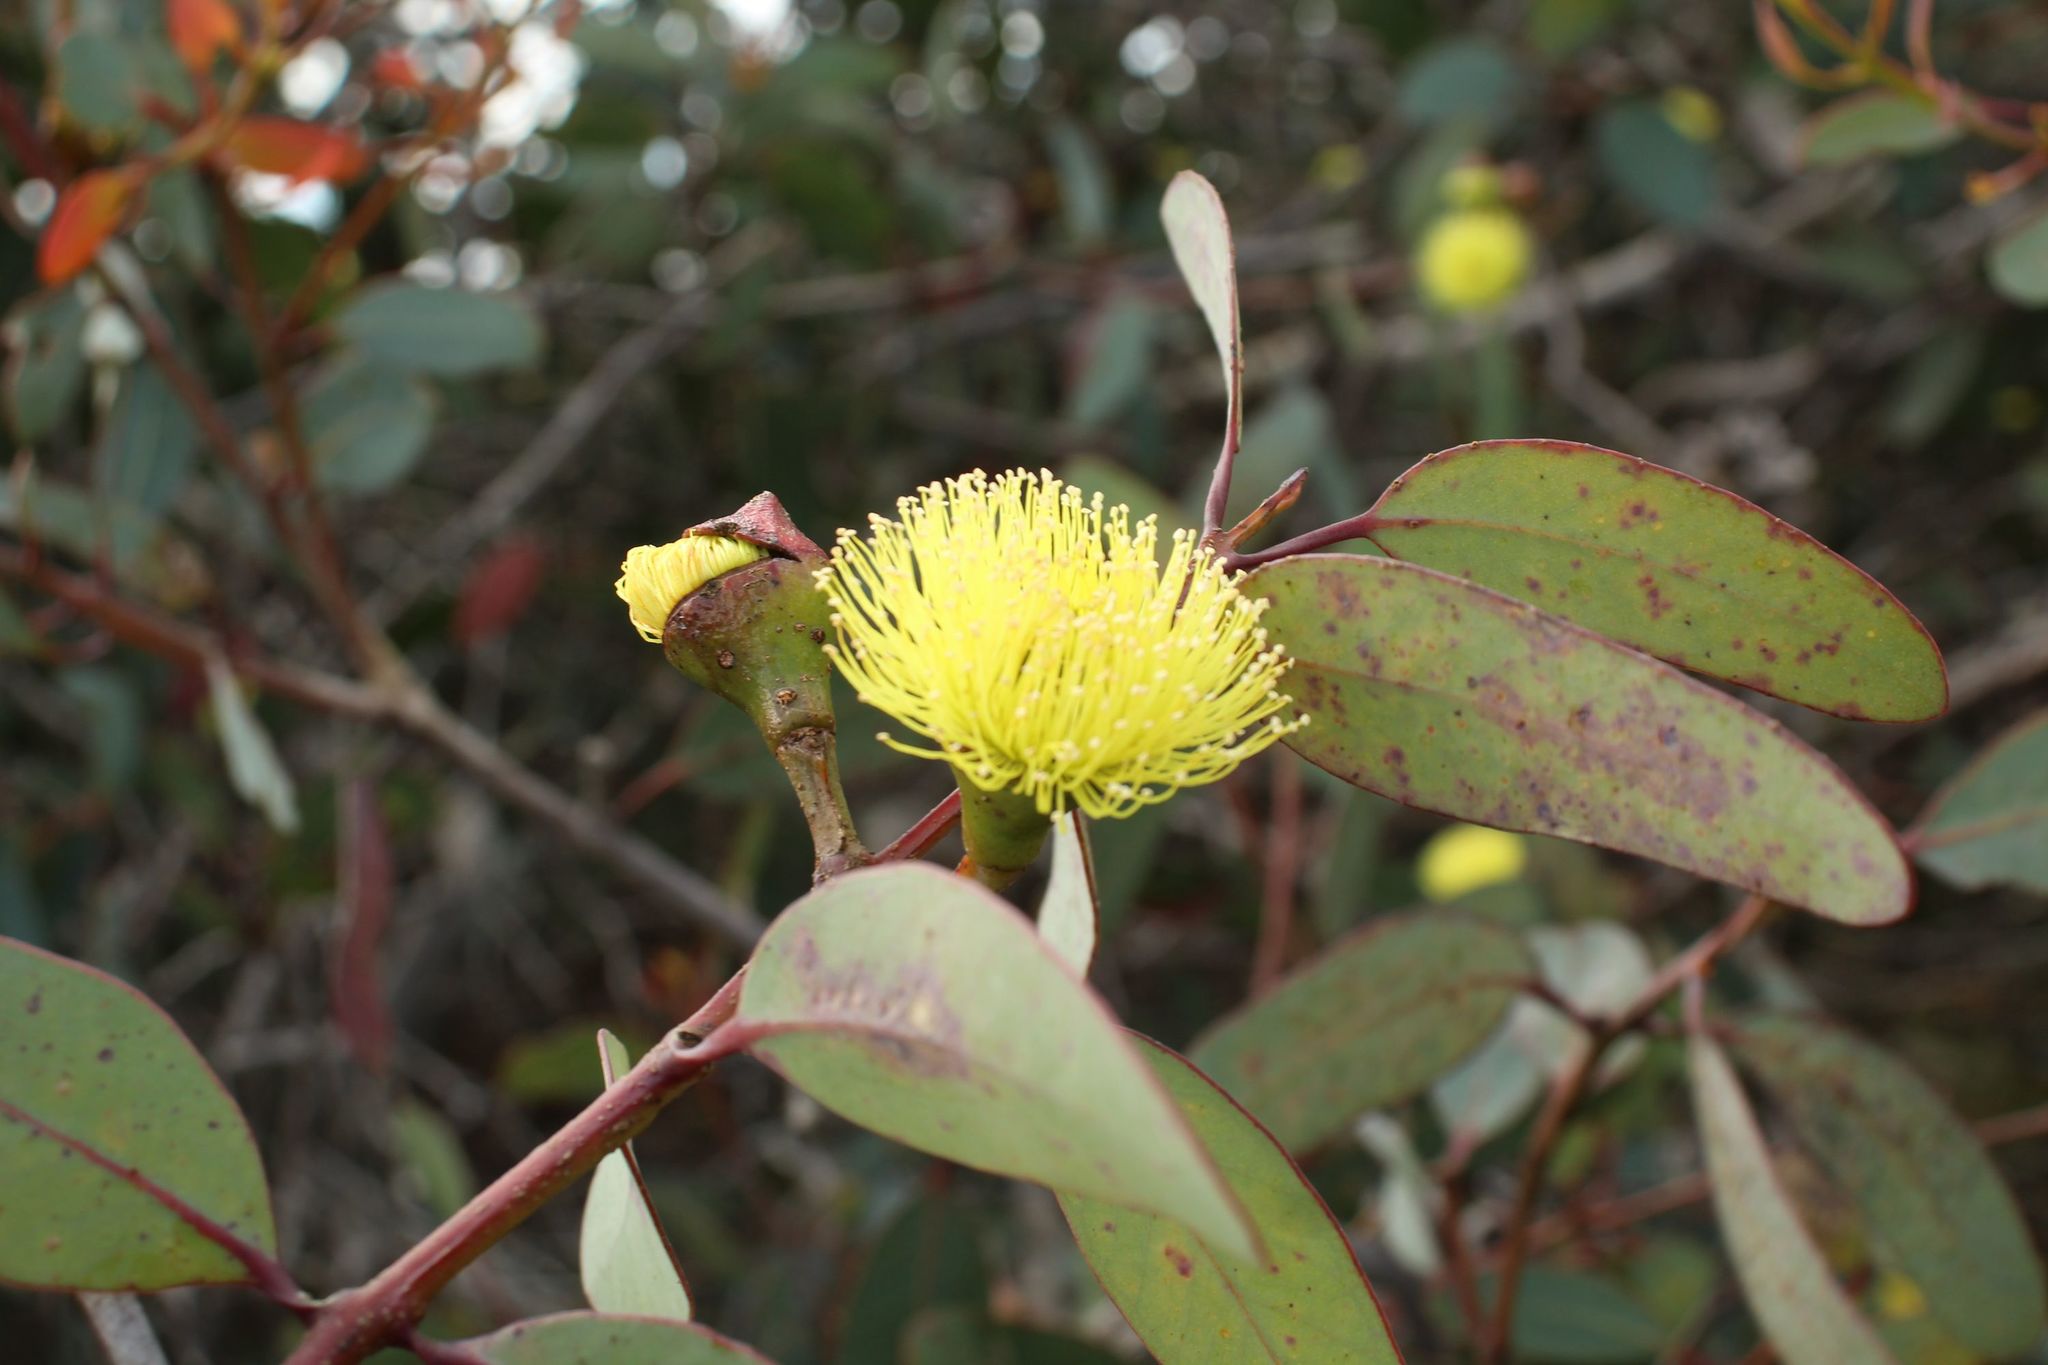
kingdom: Plantae
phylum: Tracheophyta
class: Magnoliopsida
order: Myrtales
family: Myrtaceae
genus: Eucalyptus
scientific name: Eucalyptus preissiana
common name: Stirling range mallee
